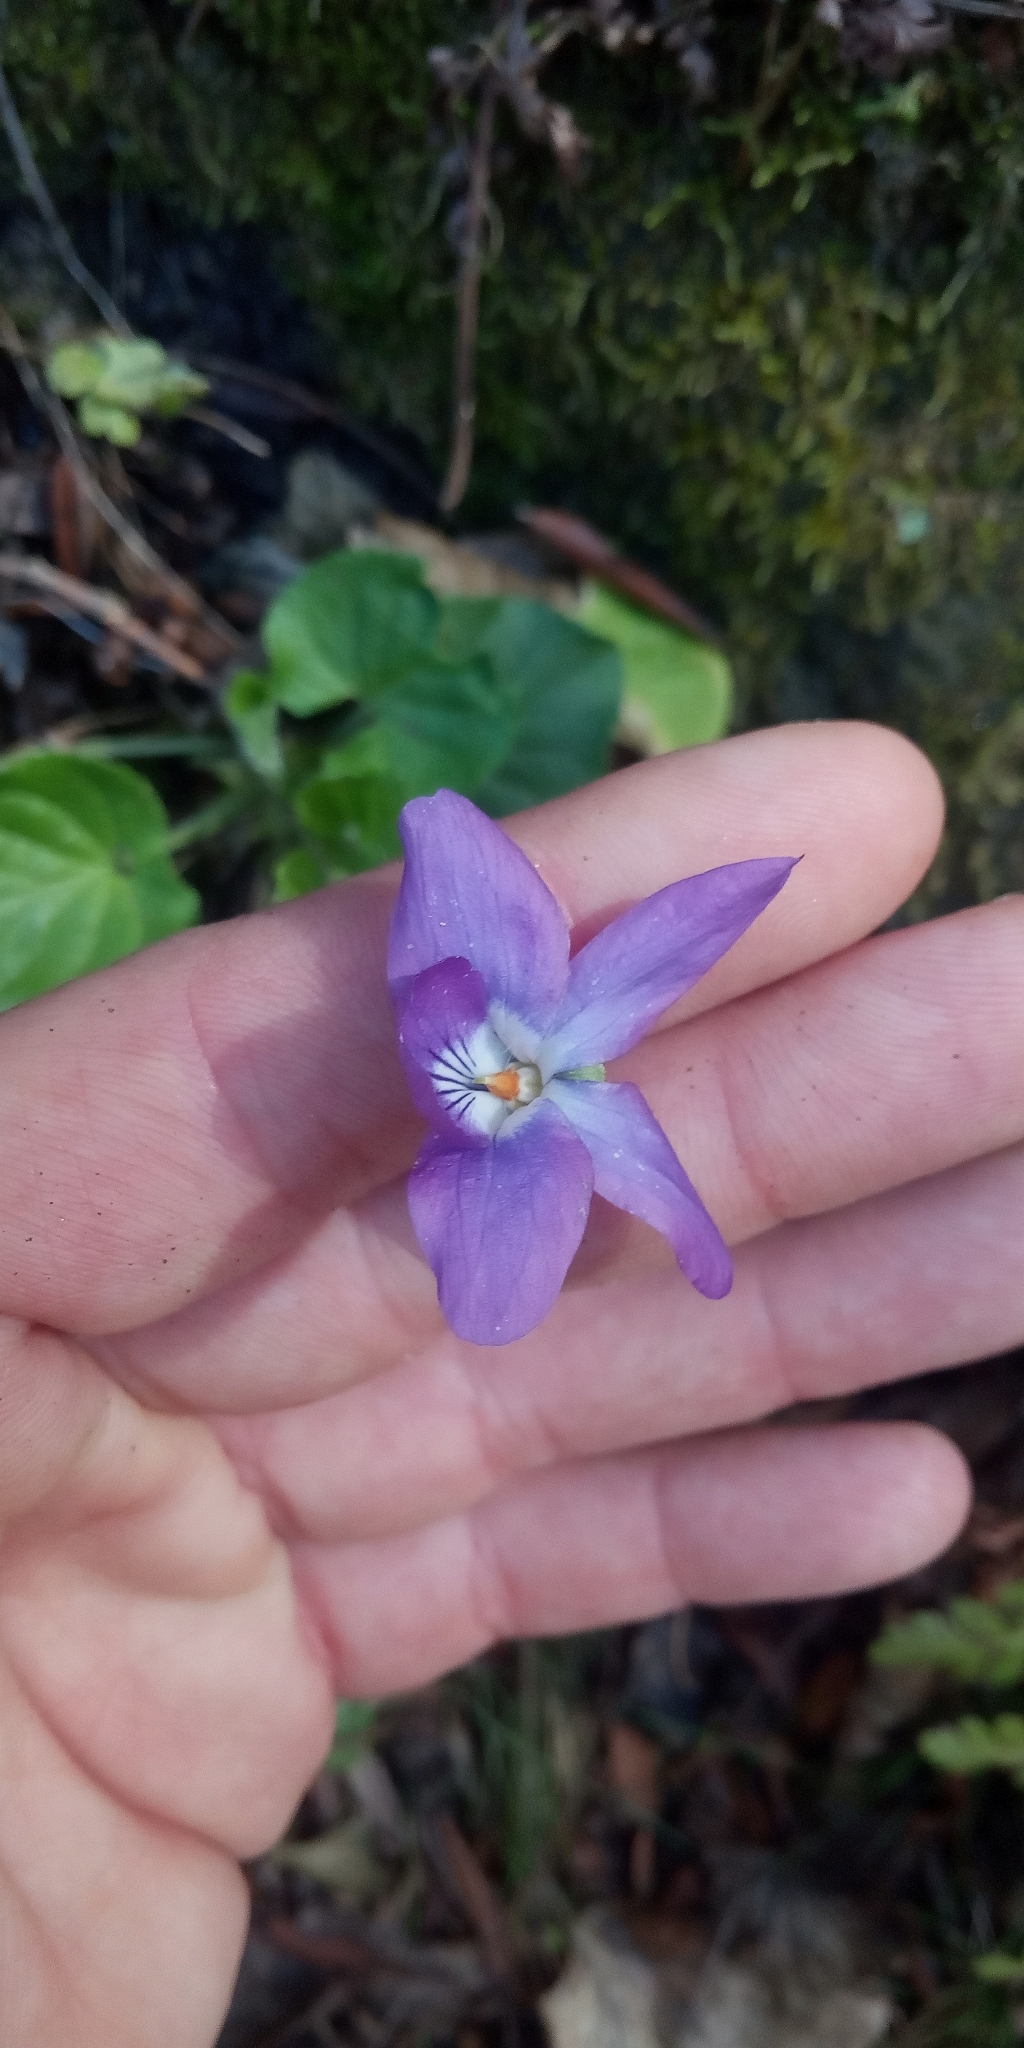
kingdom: Plantae
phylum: Tracheophyta
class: Magnoliopsida
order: Malpighiales
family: Violaceae
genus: Viola
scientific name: Viola odorata
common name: Sweet violet
